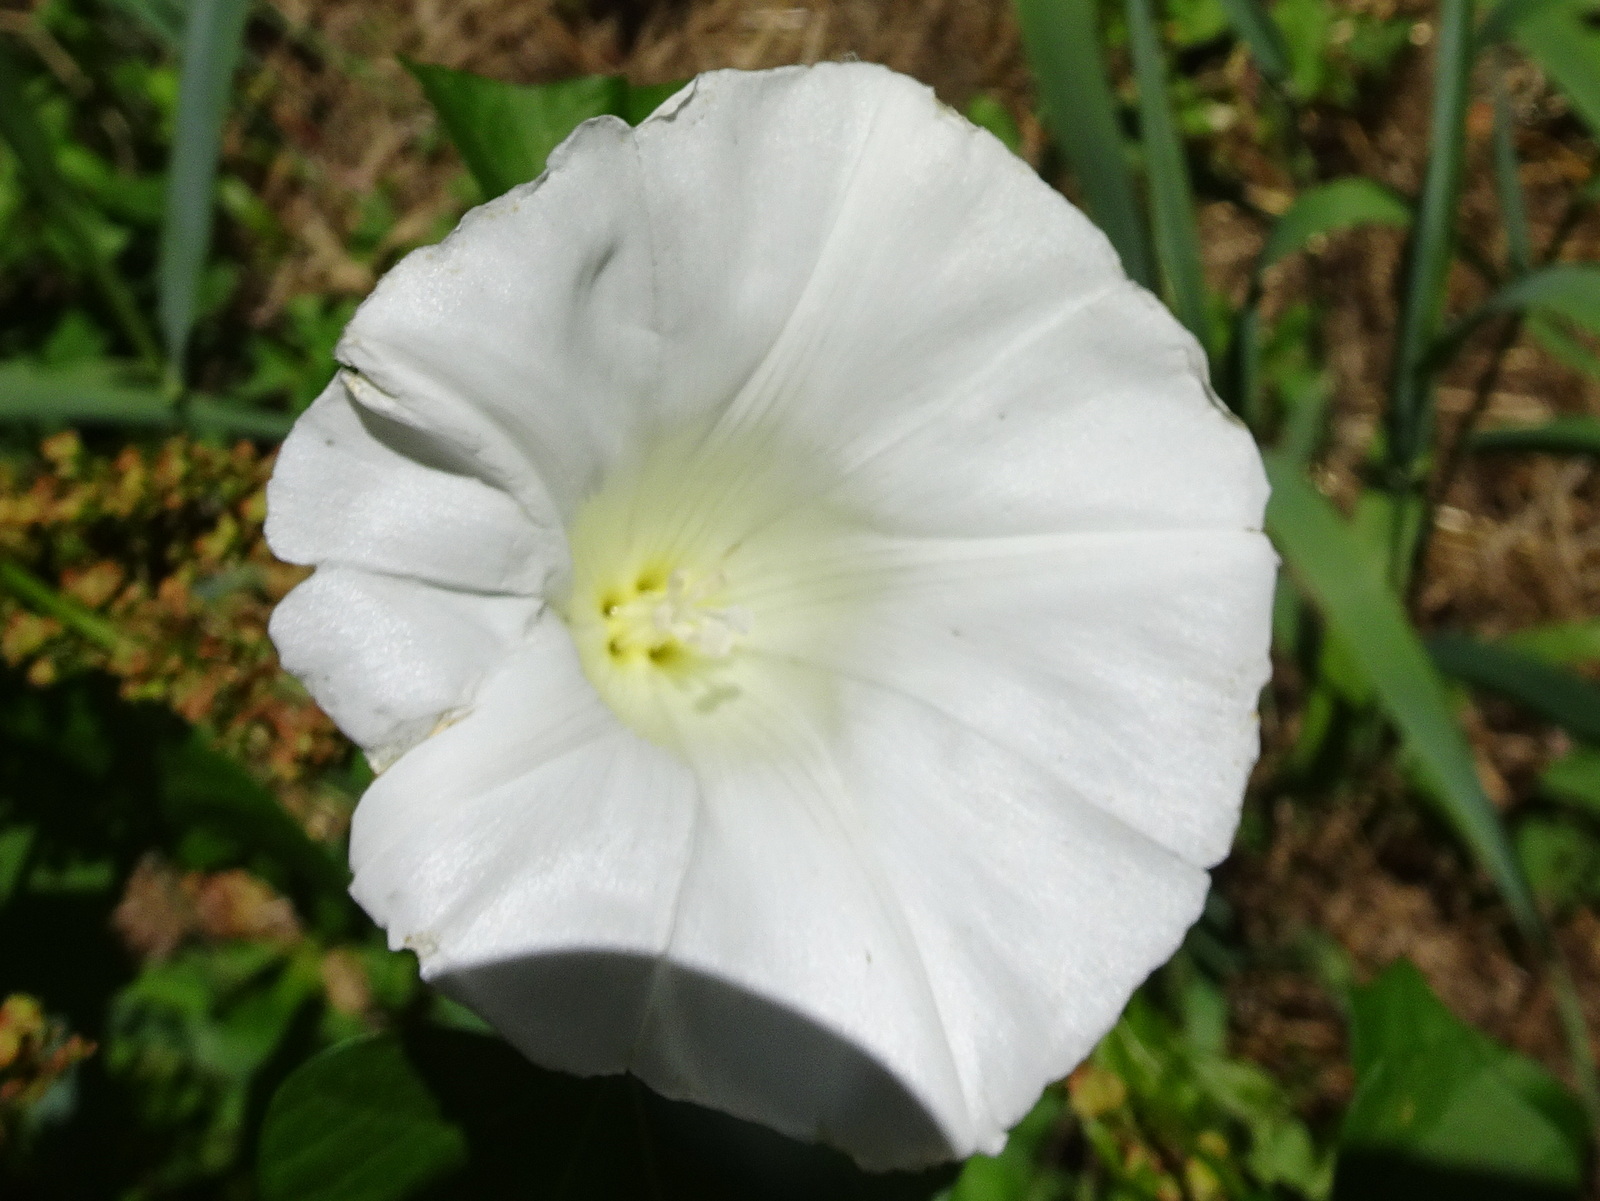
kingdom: Plantae
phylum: Tracheophyta
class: Magnoliopsida
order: Solanales
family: Convolvulaceae
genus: Calystegia
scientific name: Calystegia sepium
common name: Hedge bindweed
